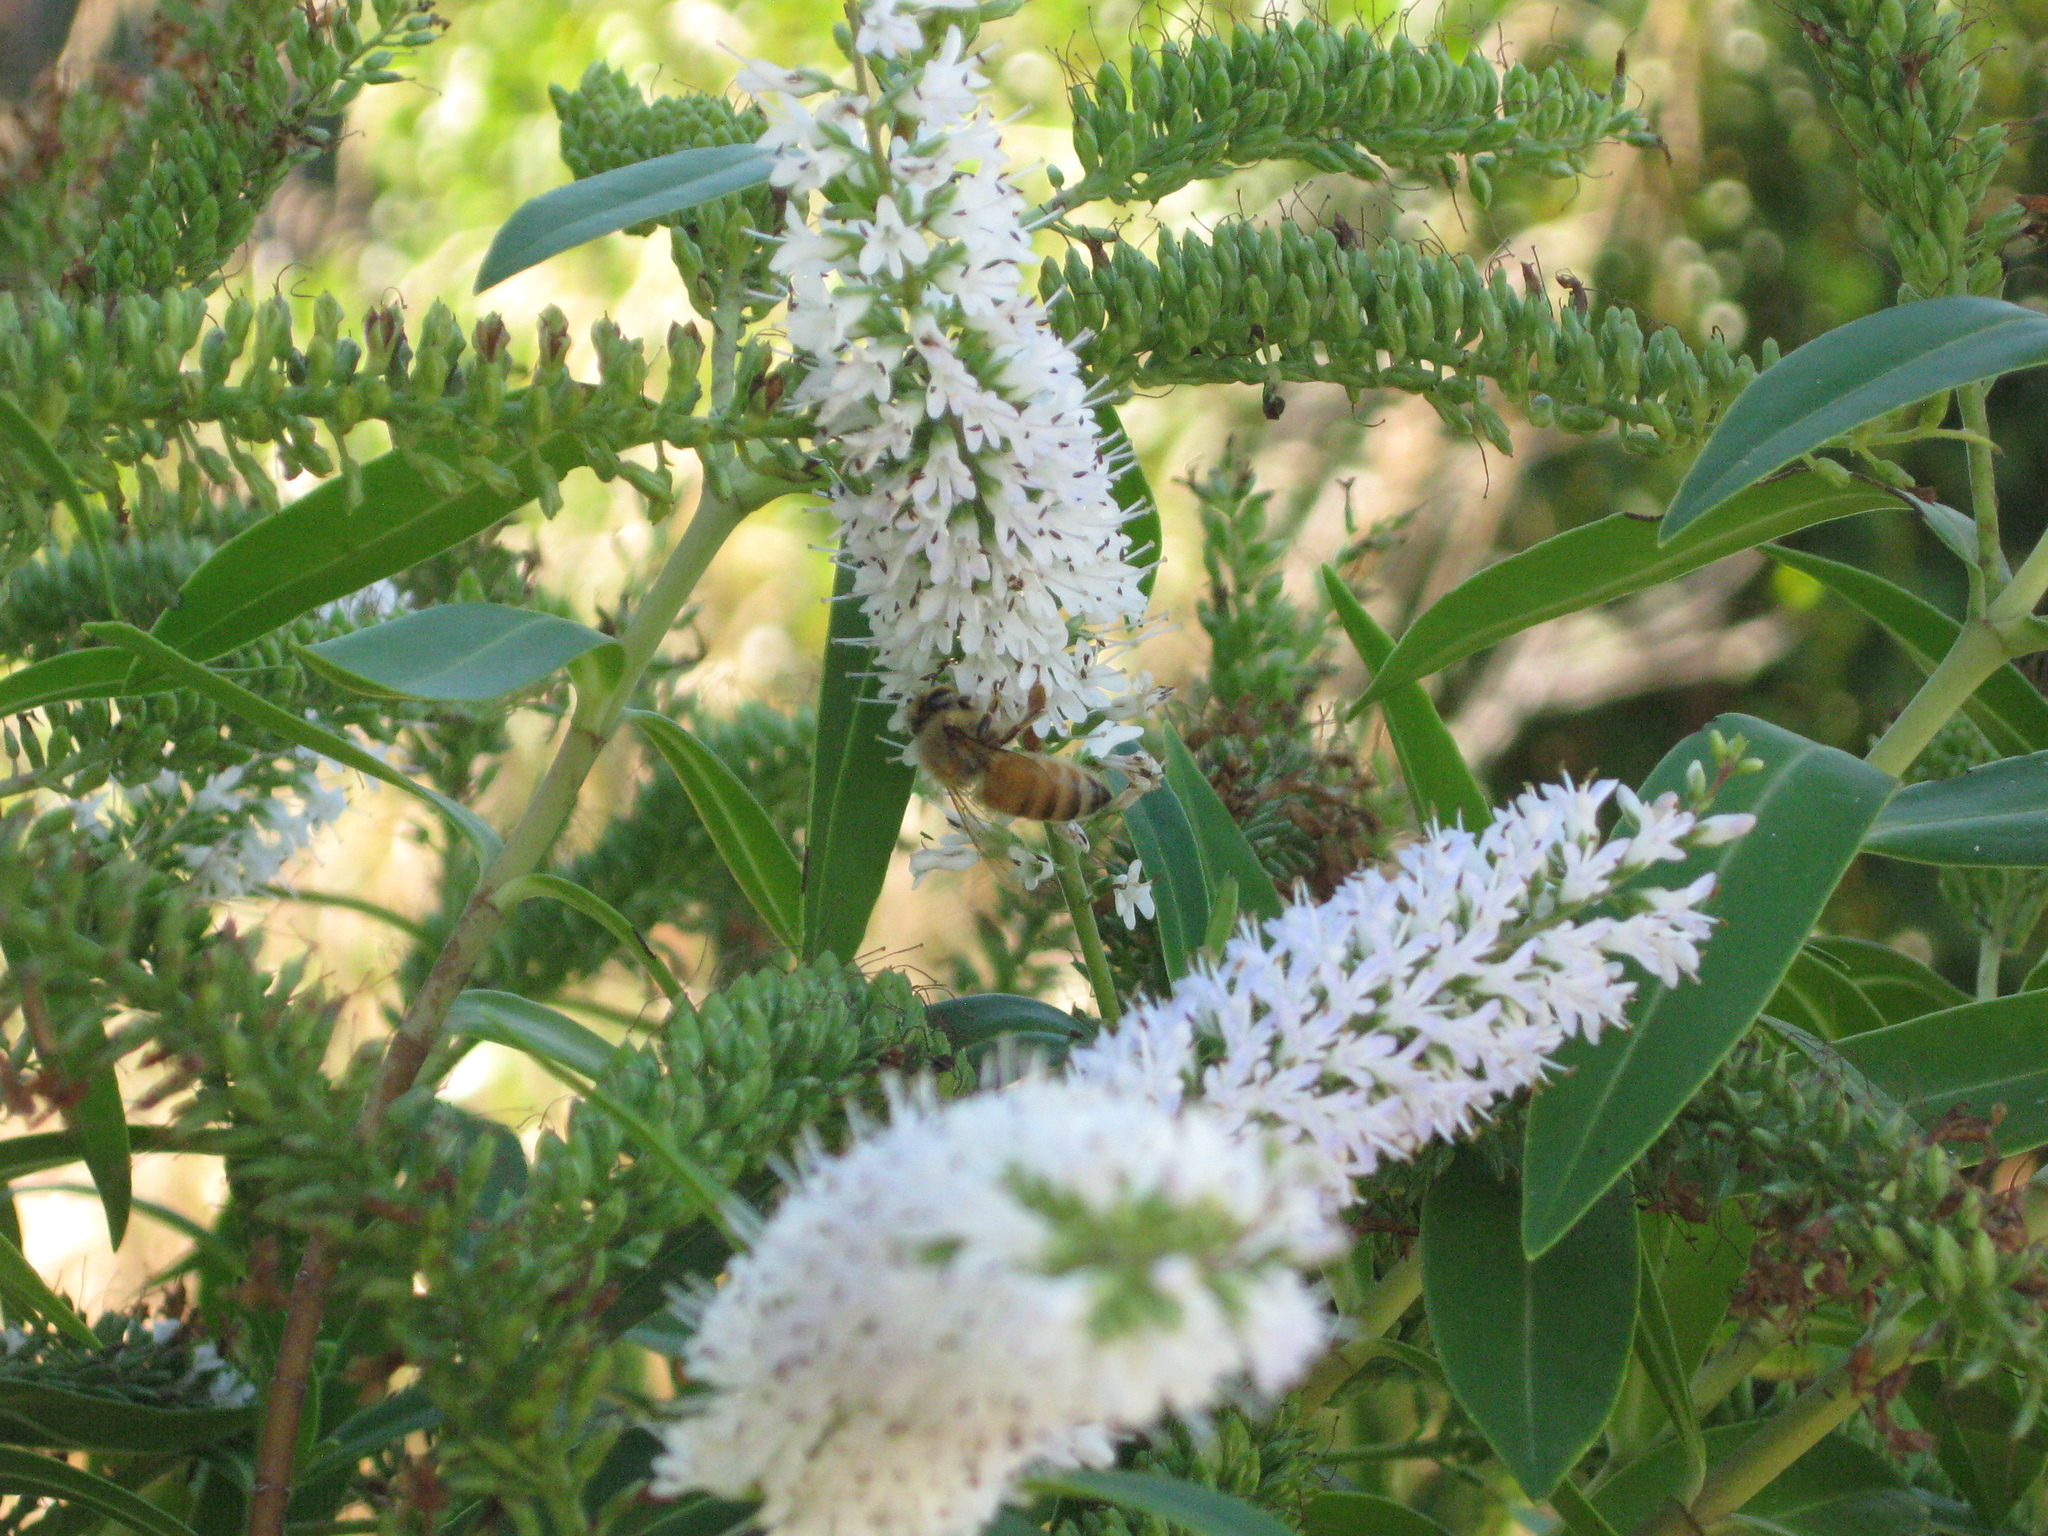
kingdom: Animalia
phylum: Arthropoda
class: Insecta
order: Hymenoptera
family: Apidae
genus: Apis
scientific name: Apis mellifera
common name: Honey bee
